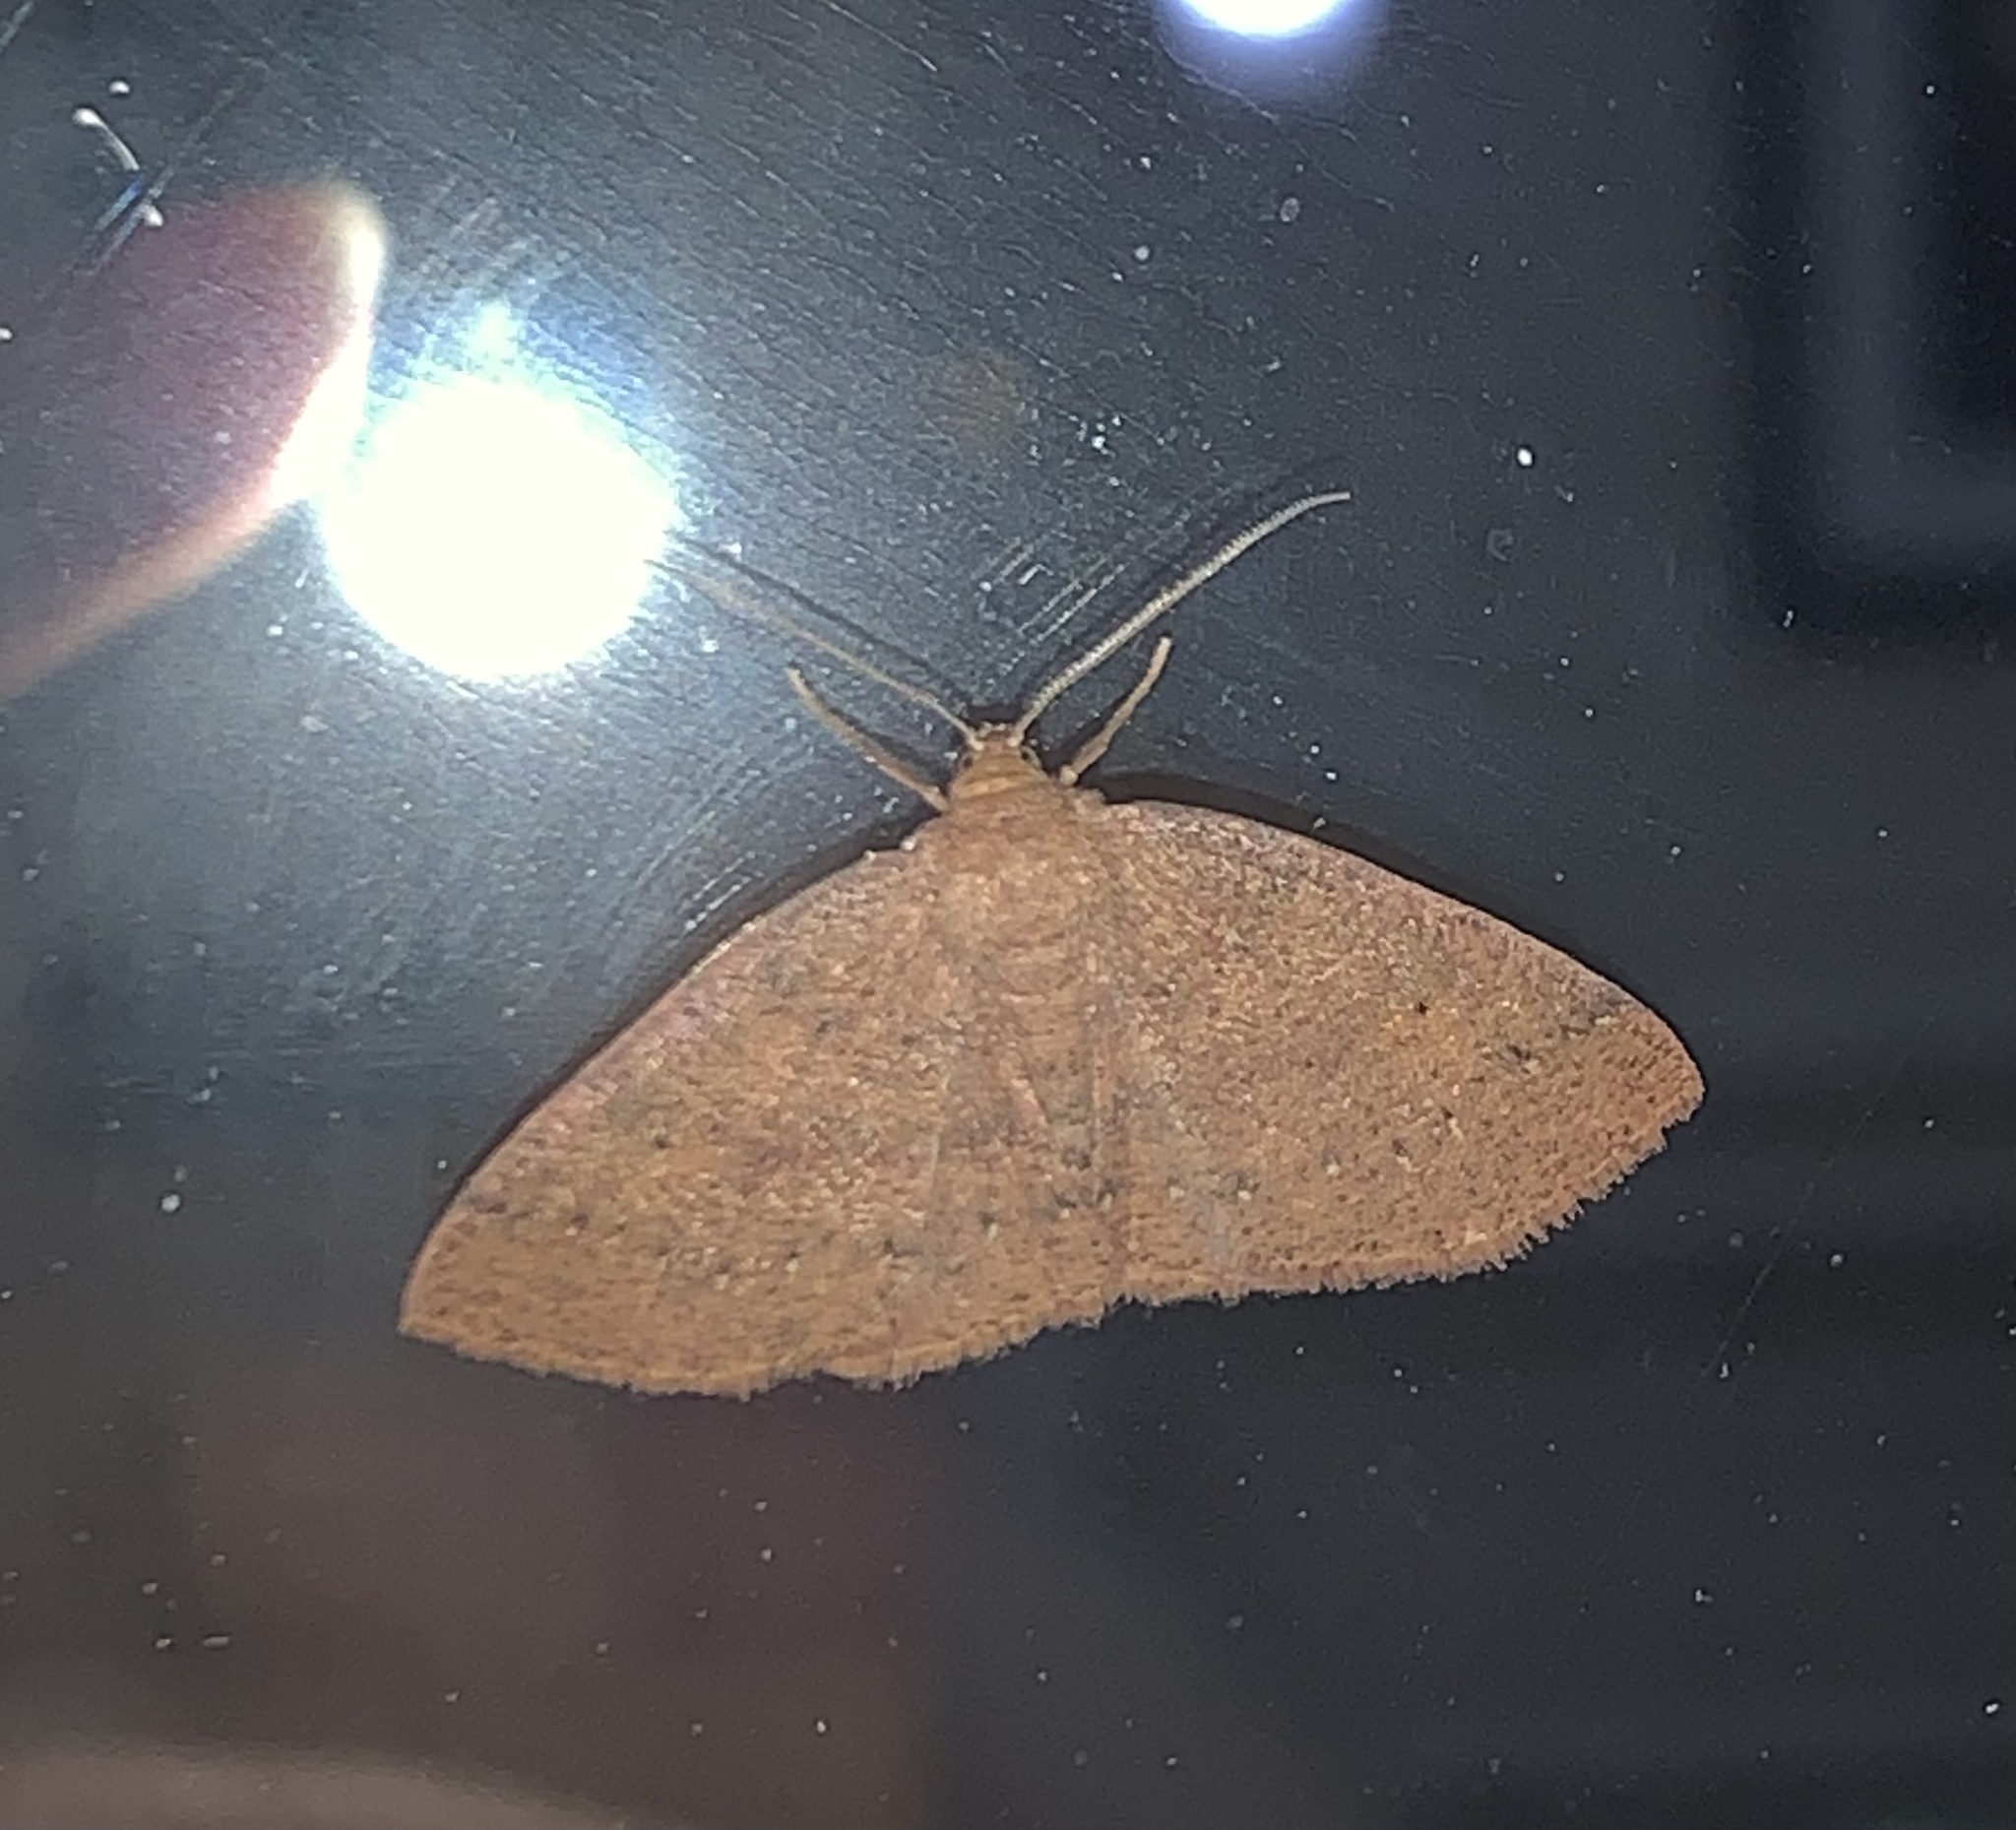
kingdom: Animalia
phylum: Arthropoda
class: Insecta
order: Lepidoptera
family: Geometridae
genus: Ilexia
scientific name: Ilexia intractata
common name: Black-dotted ruddy moth
